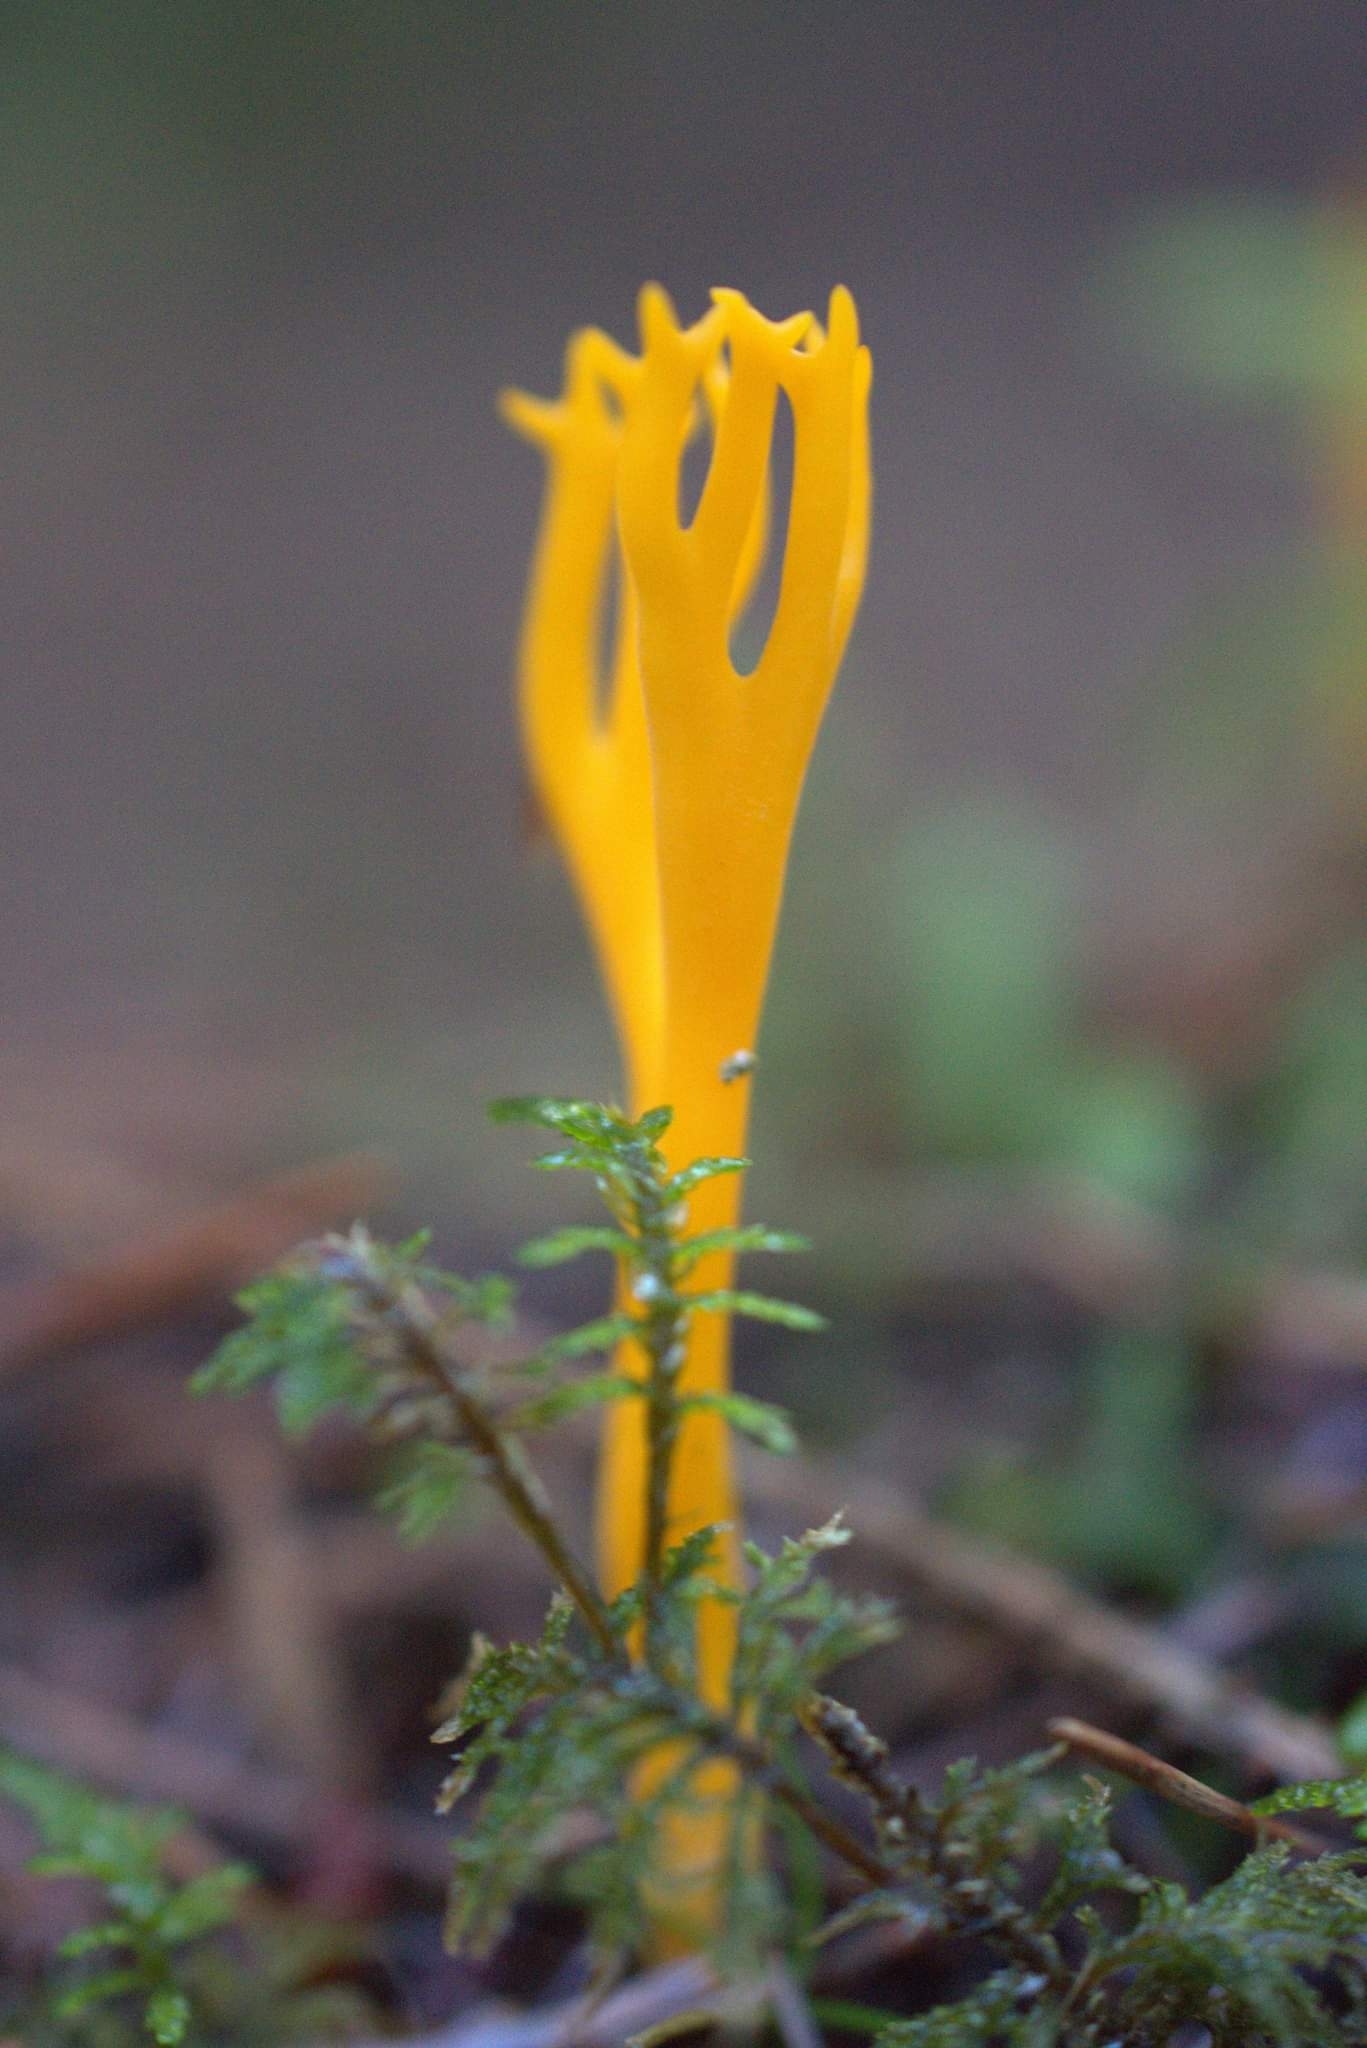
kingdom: Fungi
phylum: Basidiomycota
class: Dacrymycetes
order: Dacrymycetales
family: Dacrymycetaceae
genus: Calocera
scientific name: Calocera viscosa
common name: Yellow stagshorn
